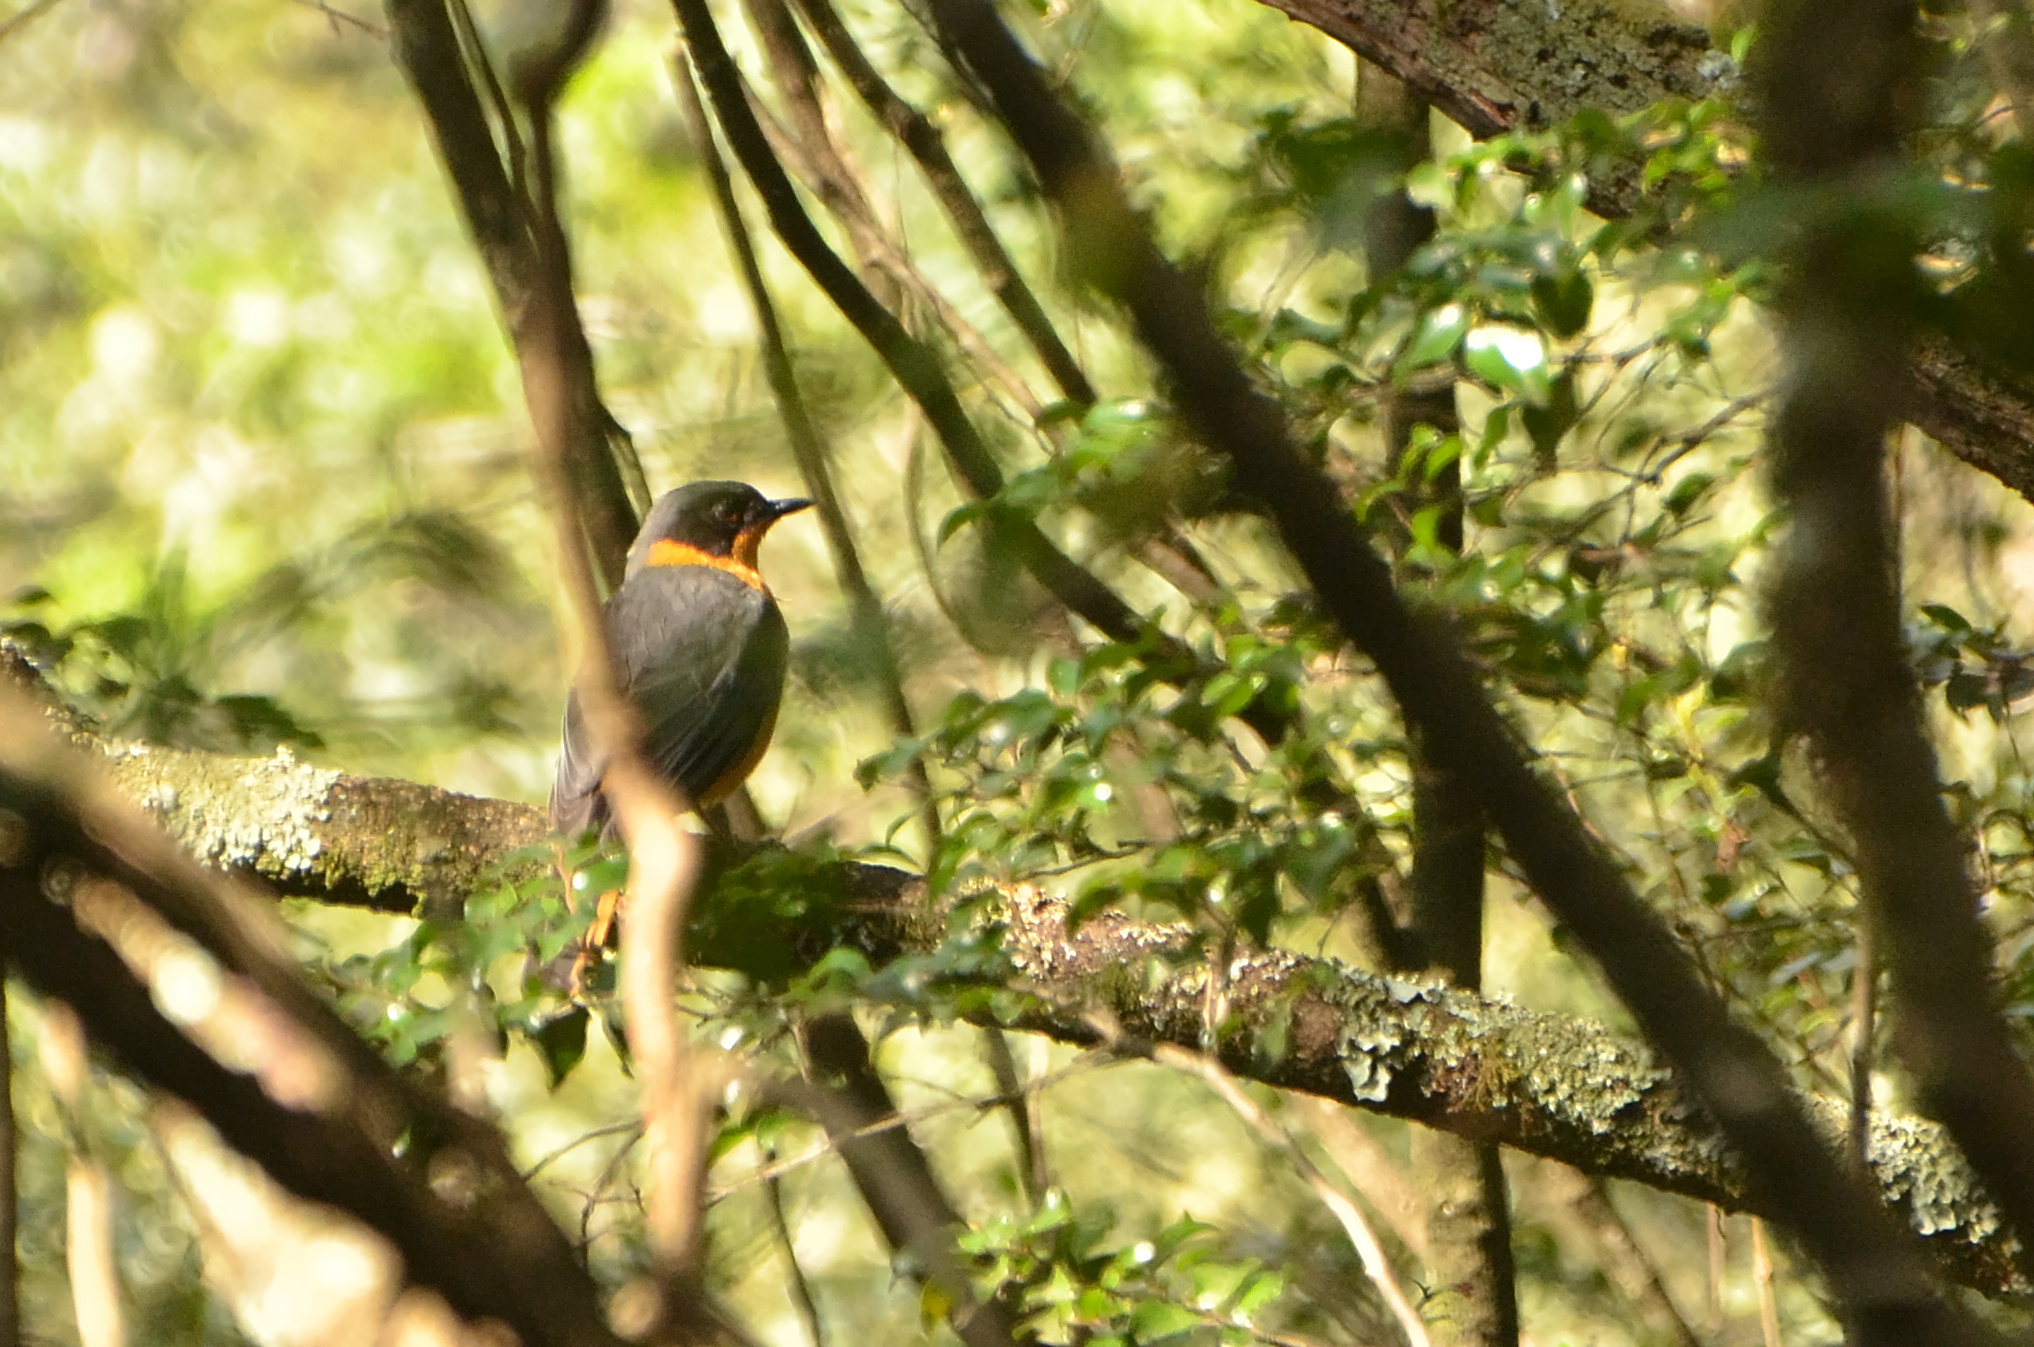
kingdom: Animalia
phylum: Chordata
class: Aves
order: Passeriformes
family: Muscicapidae
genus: Cossypha
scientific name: Cossypha dichroa
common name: Chorister robin-chat
